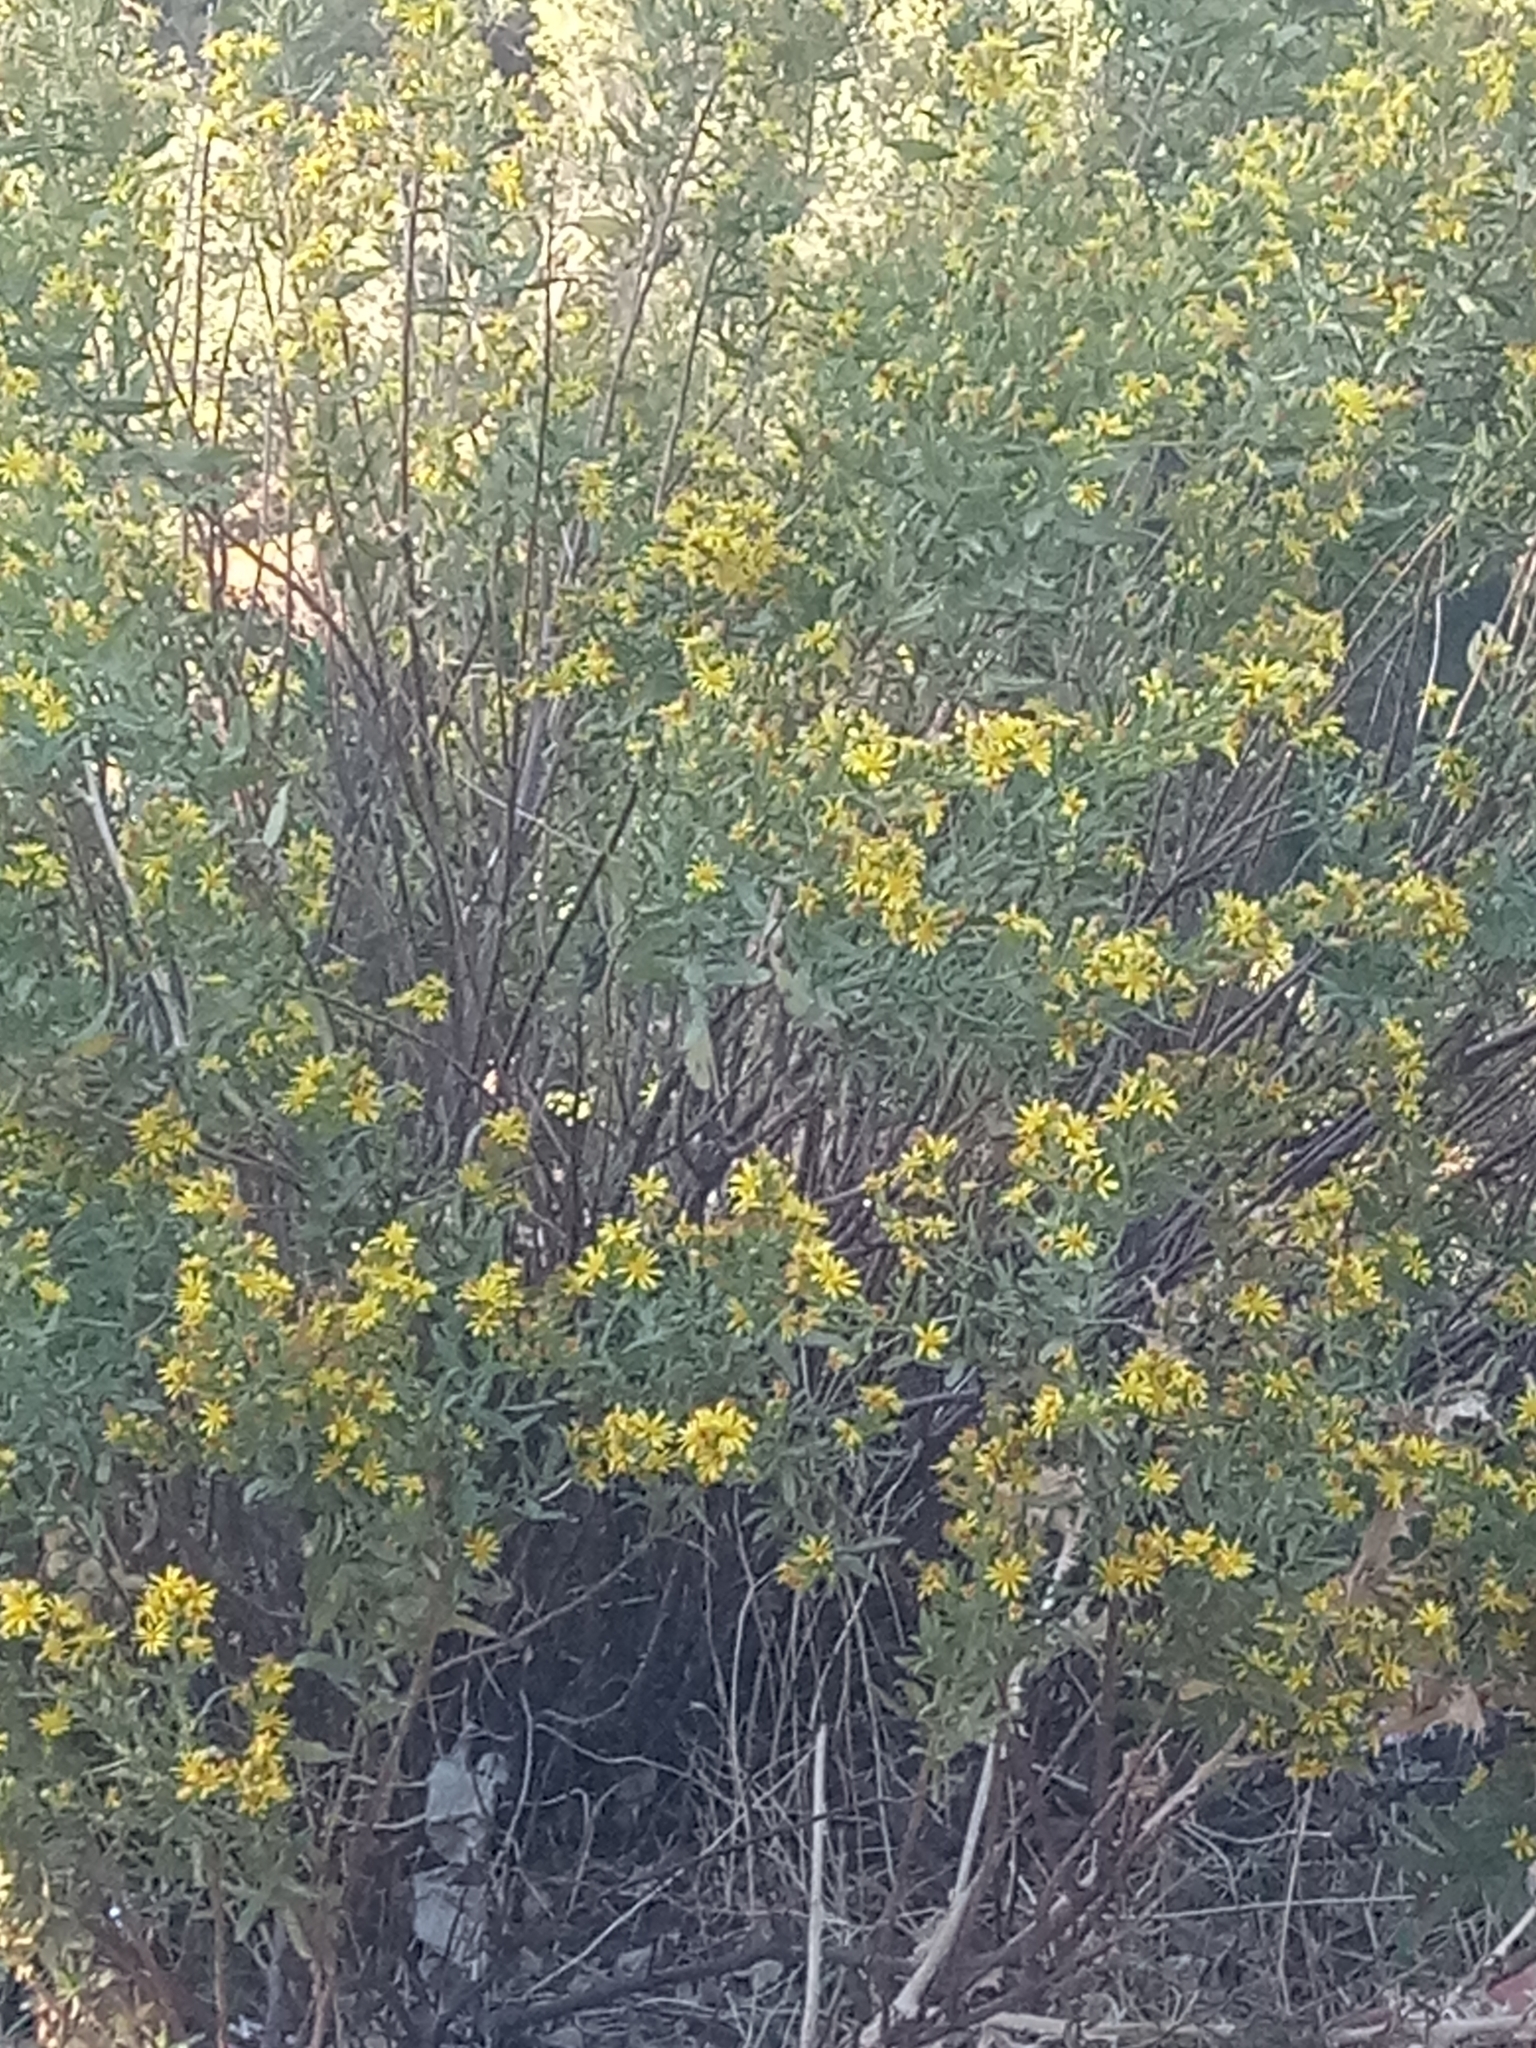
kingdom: Plantae
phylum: Tracheophyta
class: Magnoliopsida
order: Asterales
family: Asteraceae
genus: Dittrichia
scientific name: Dittrichia viscosa
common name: Woody fleabane
